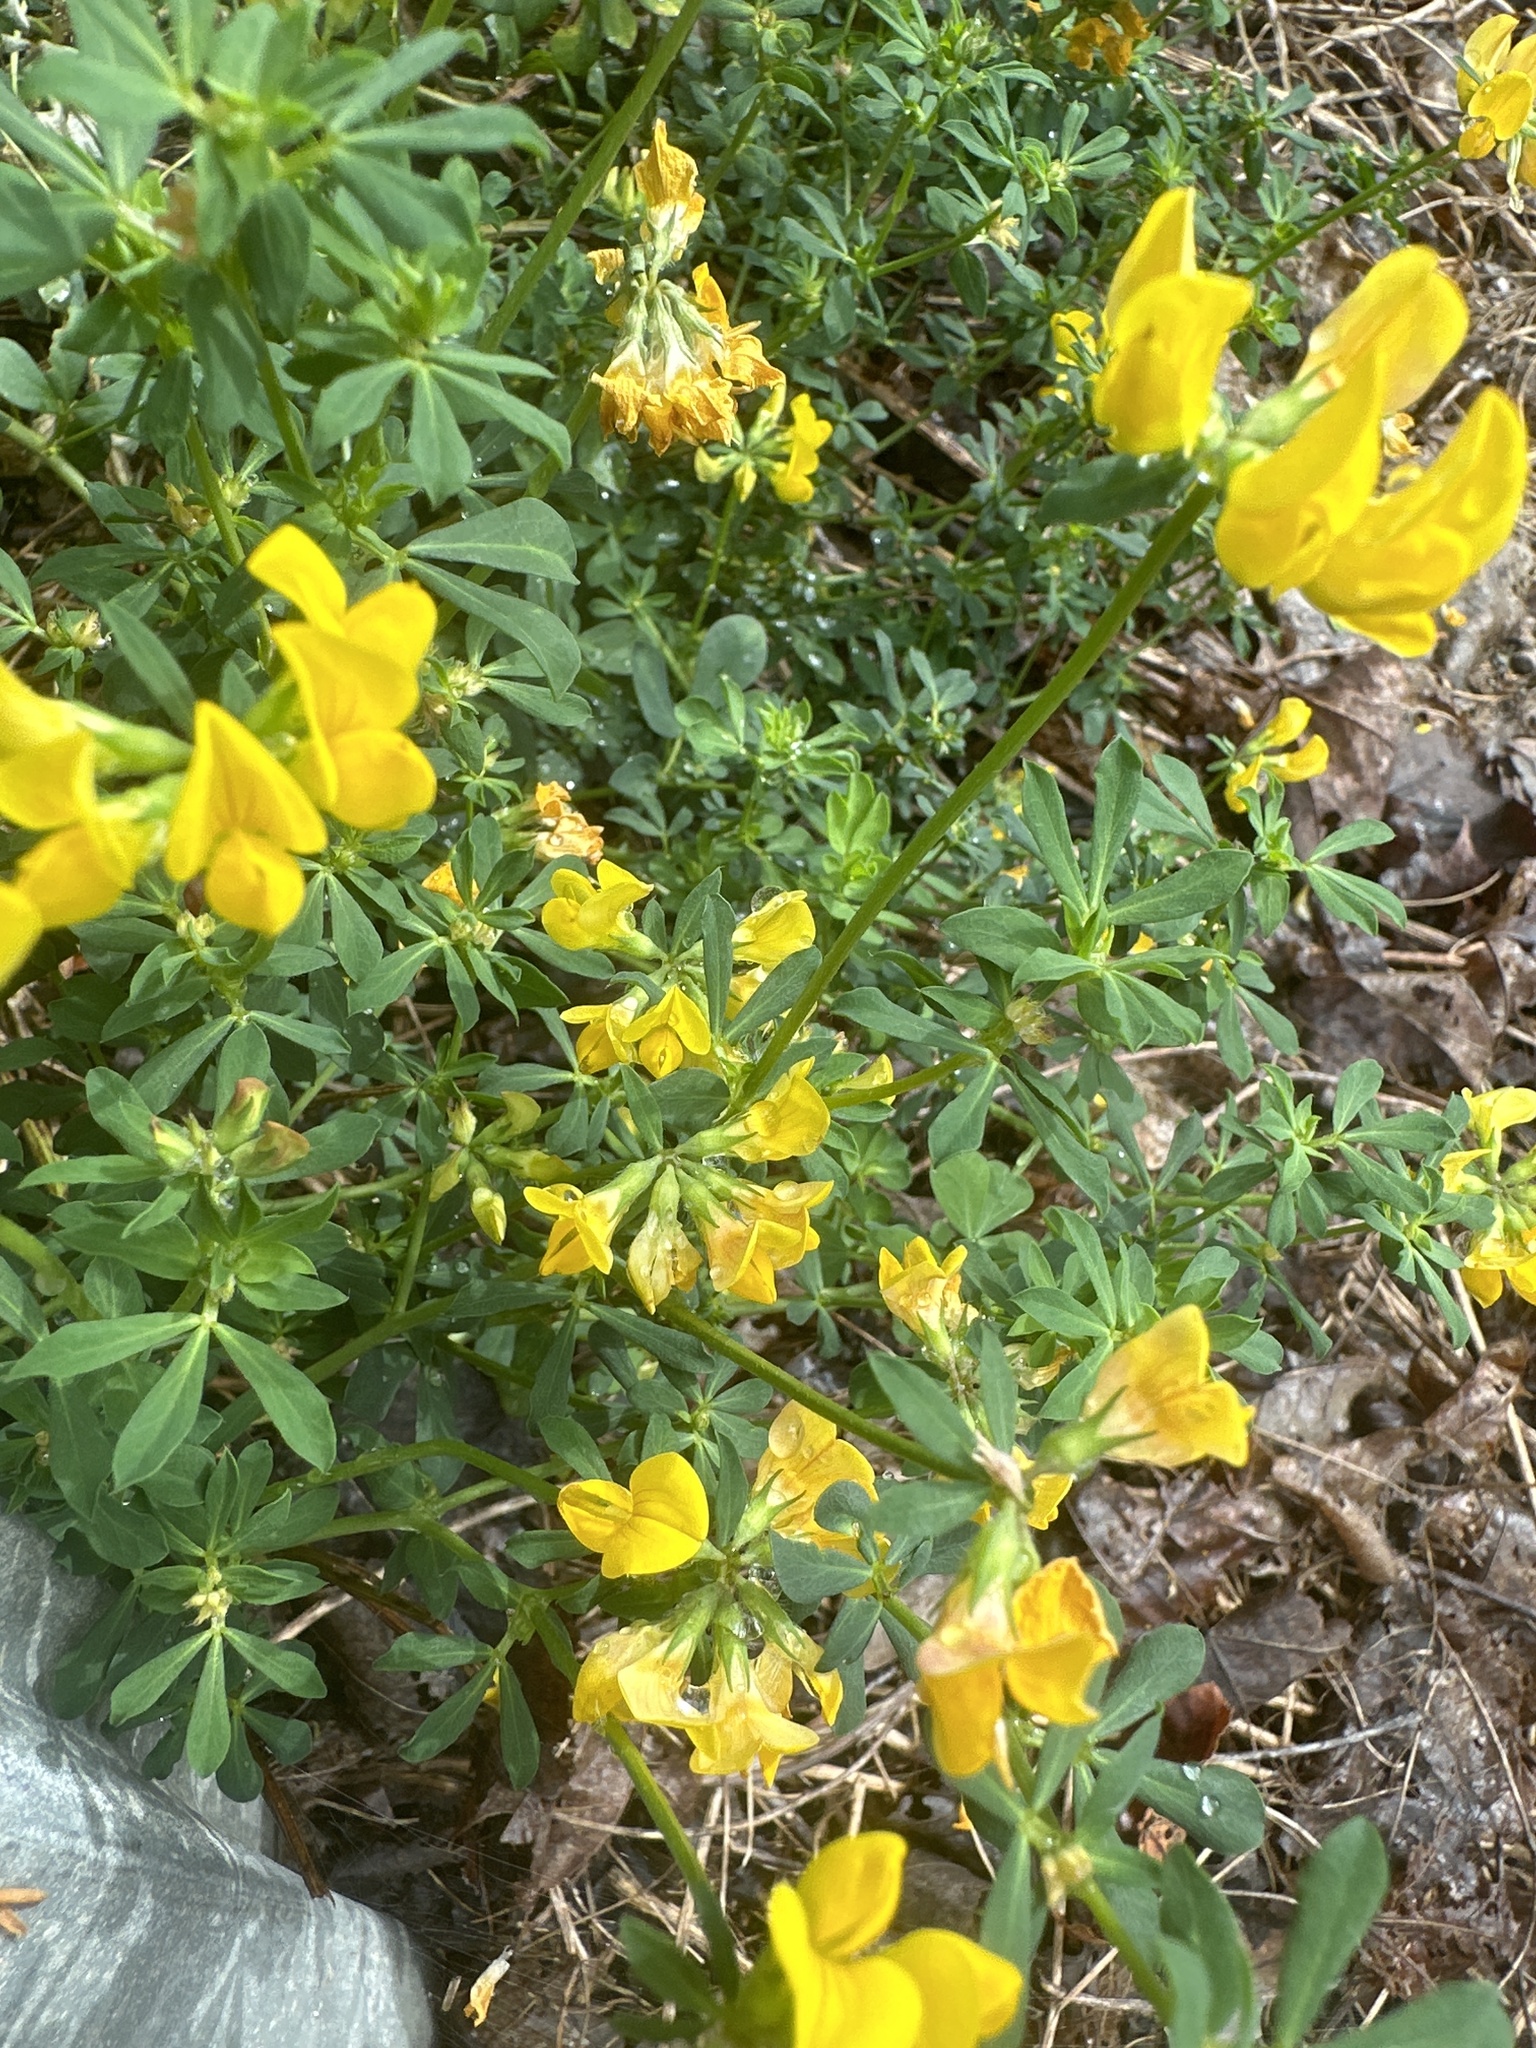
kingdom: Plantae
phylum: Tracheophyta
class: Magnoliopsida
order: Fabales
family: Fabaceae
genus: Lotus
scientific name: Lotus corniculatus
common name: Common bird's-foot-trefoil
